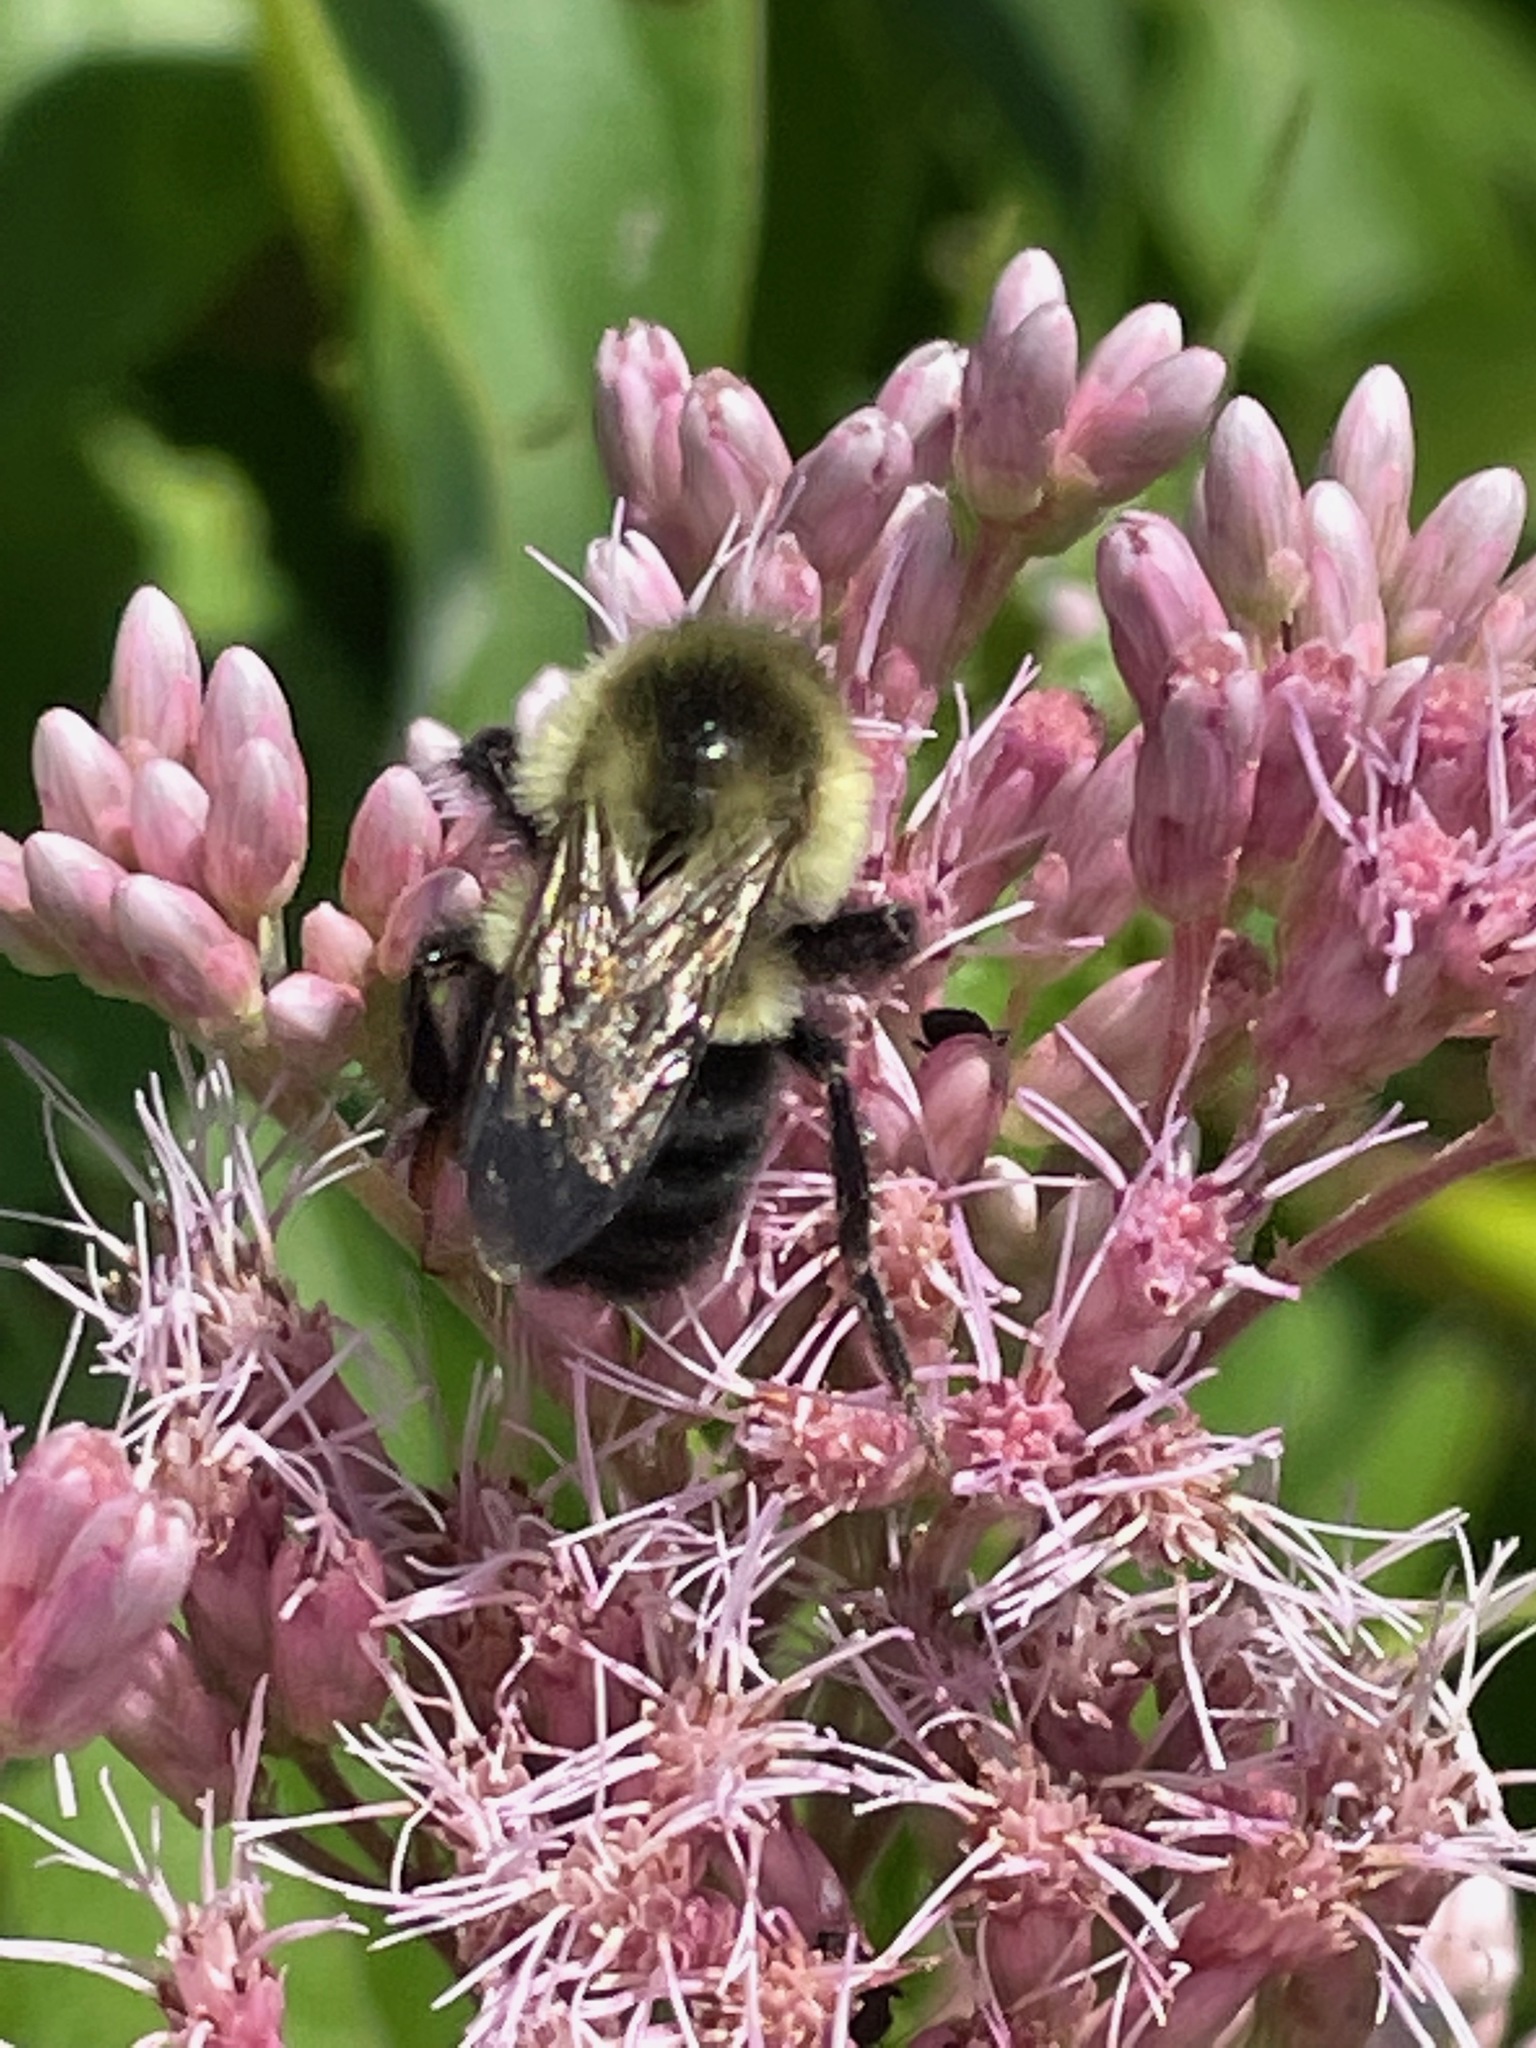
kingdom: Animalia
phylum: Arthropoda
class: Insecta
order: Hymenoptera
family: Apidae
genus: Bombus
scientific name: Bombus impatiens
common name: Common eastern bumble bee
